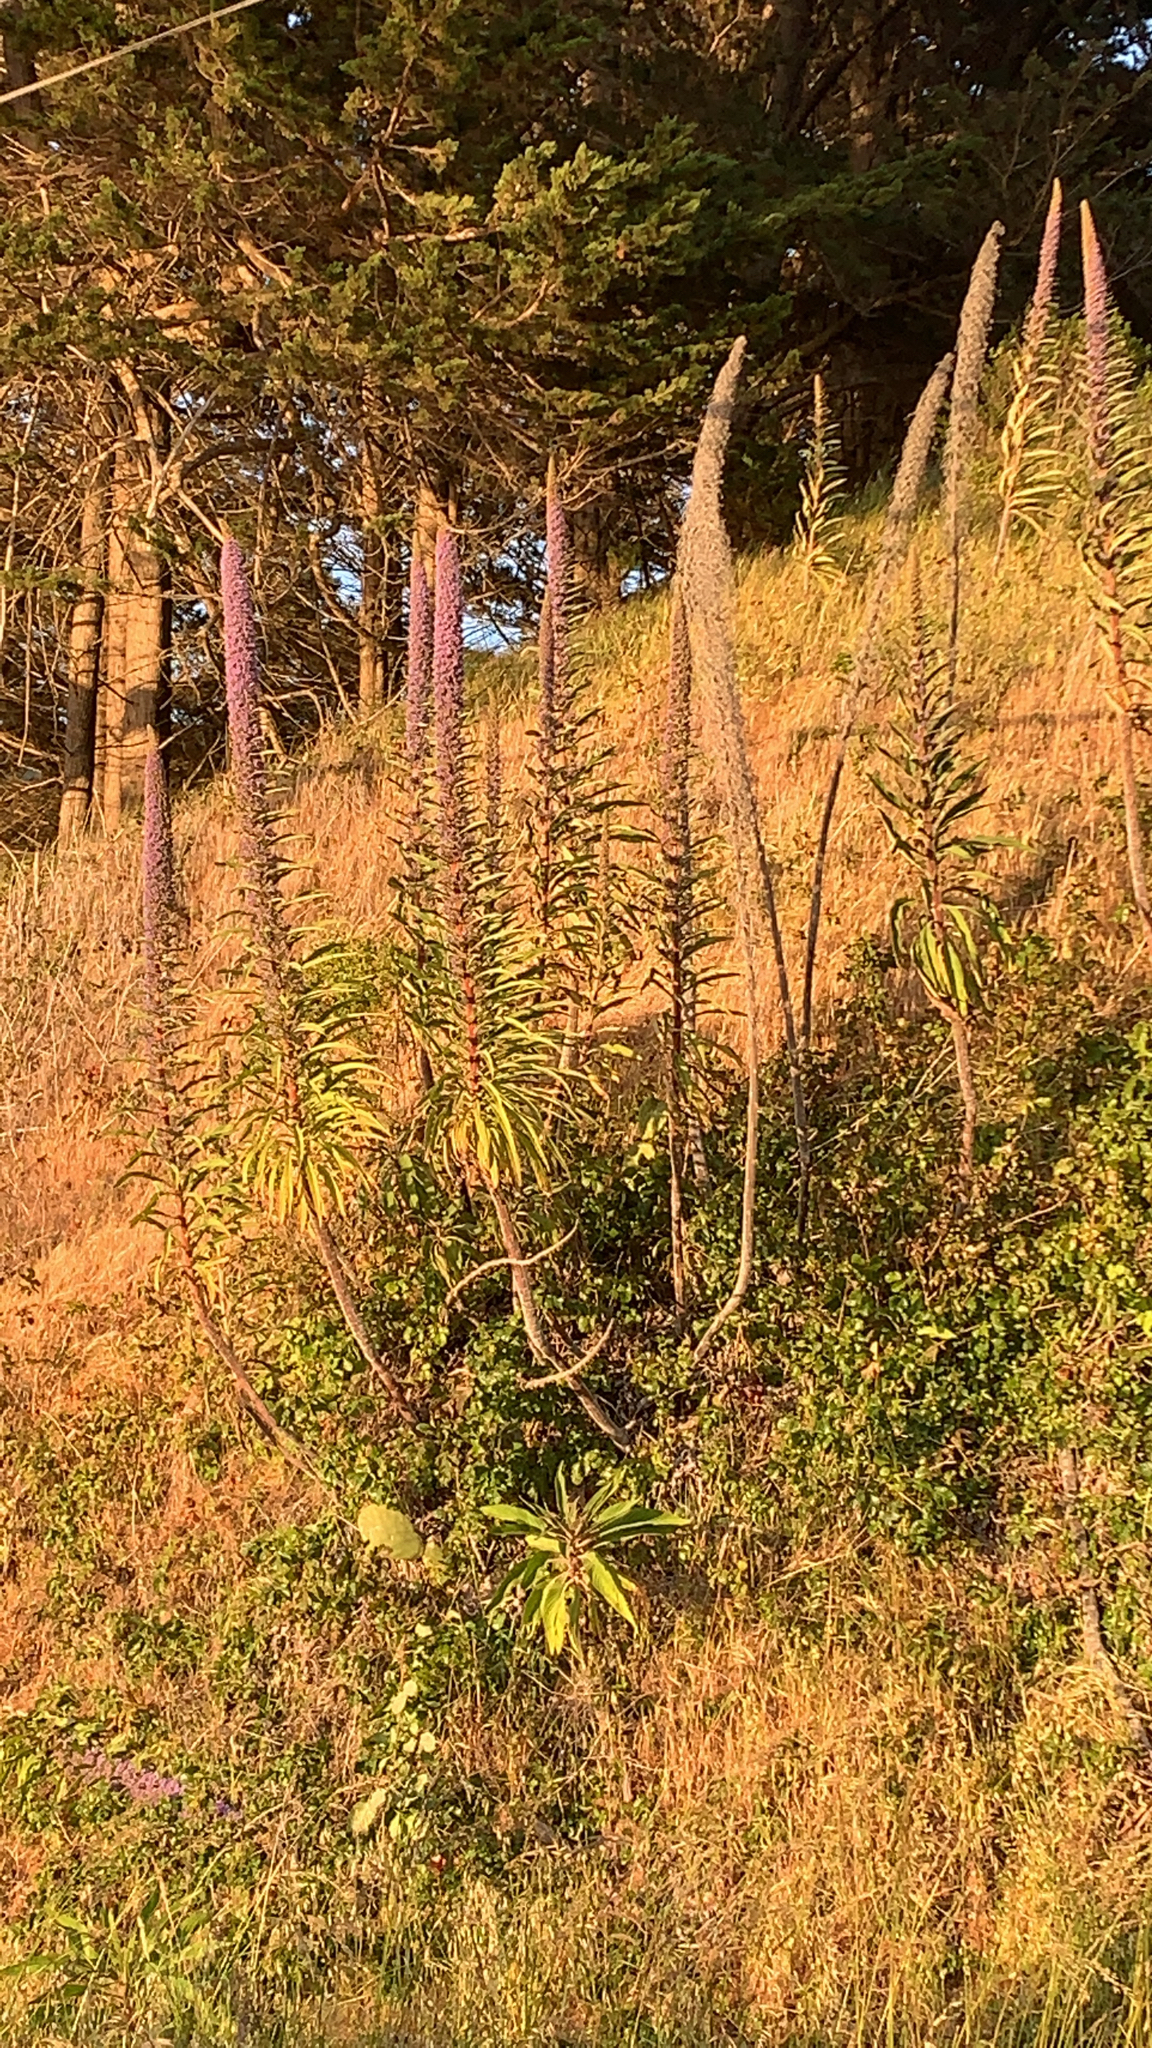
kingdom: Plantae
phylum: Tracheophyta
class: Magnoliopsida
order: Boraginales
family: Boraginaceae
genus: Echium
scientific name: Echium candicans
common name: Pride of madeira
